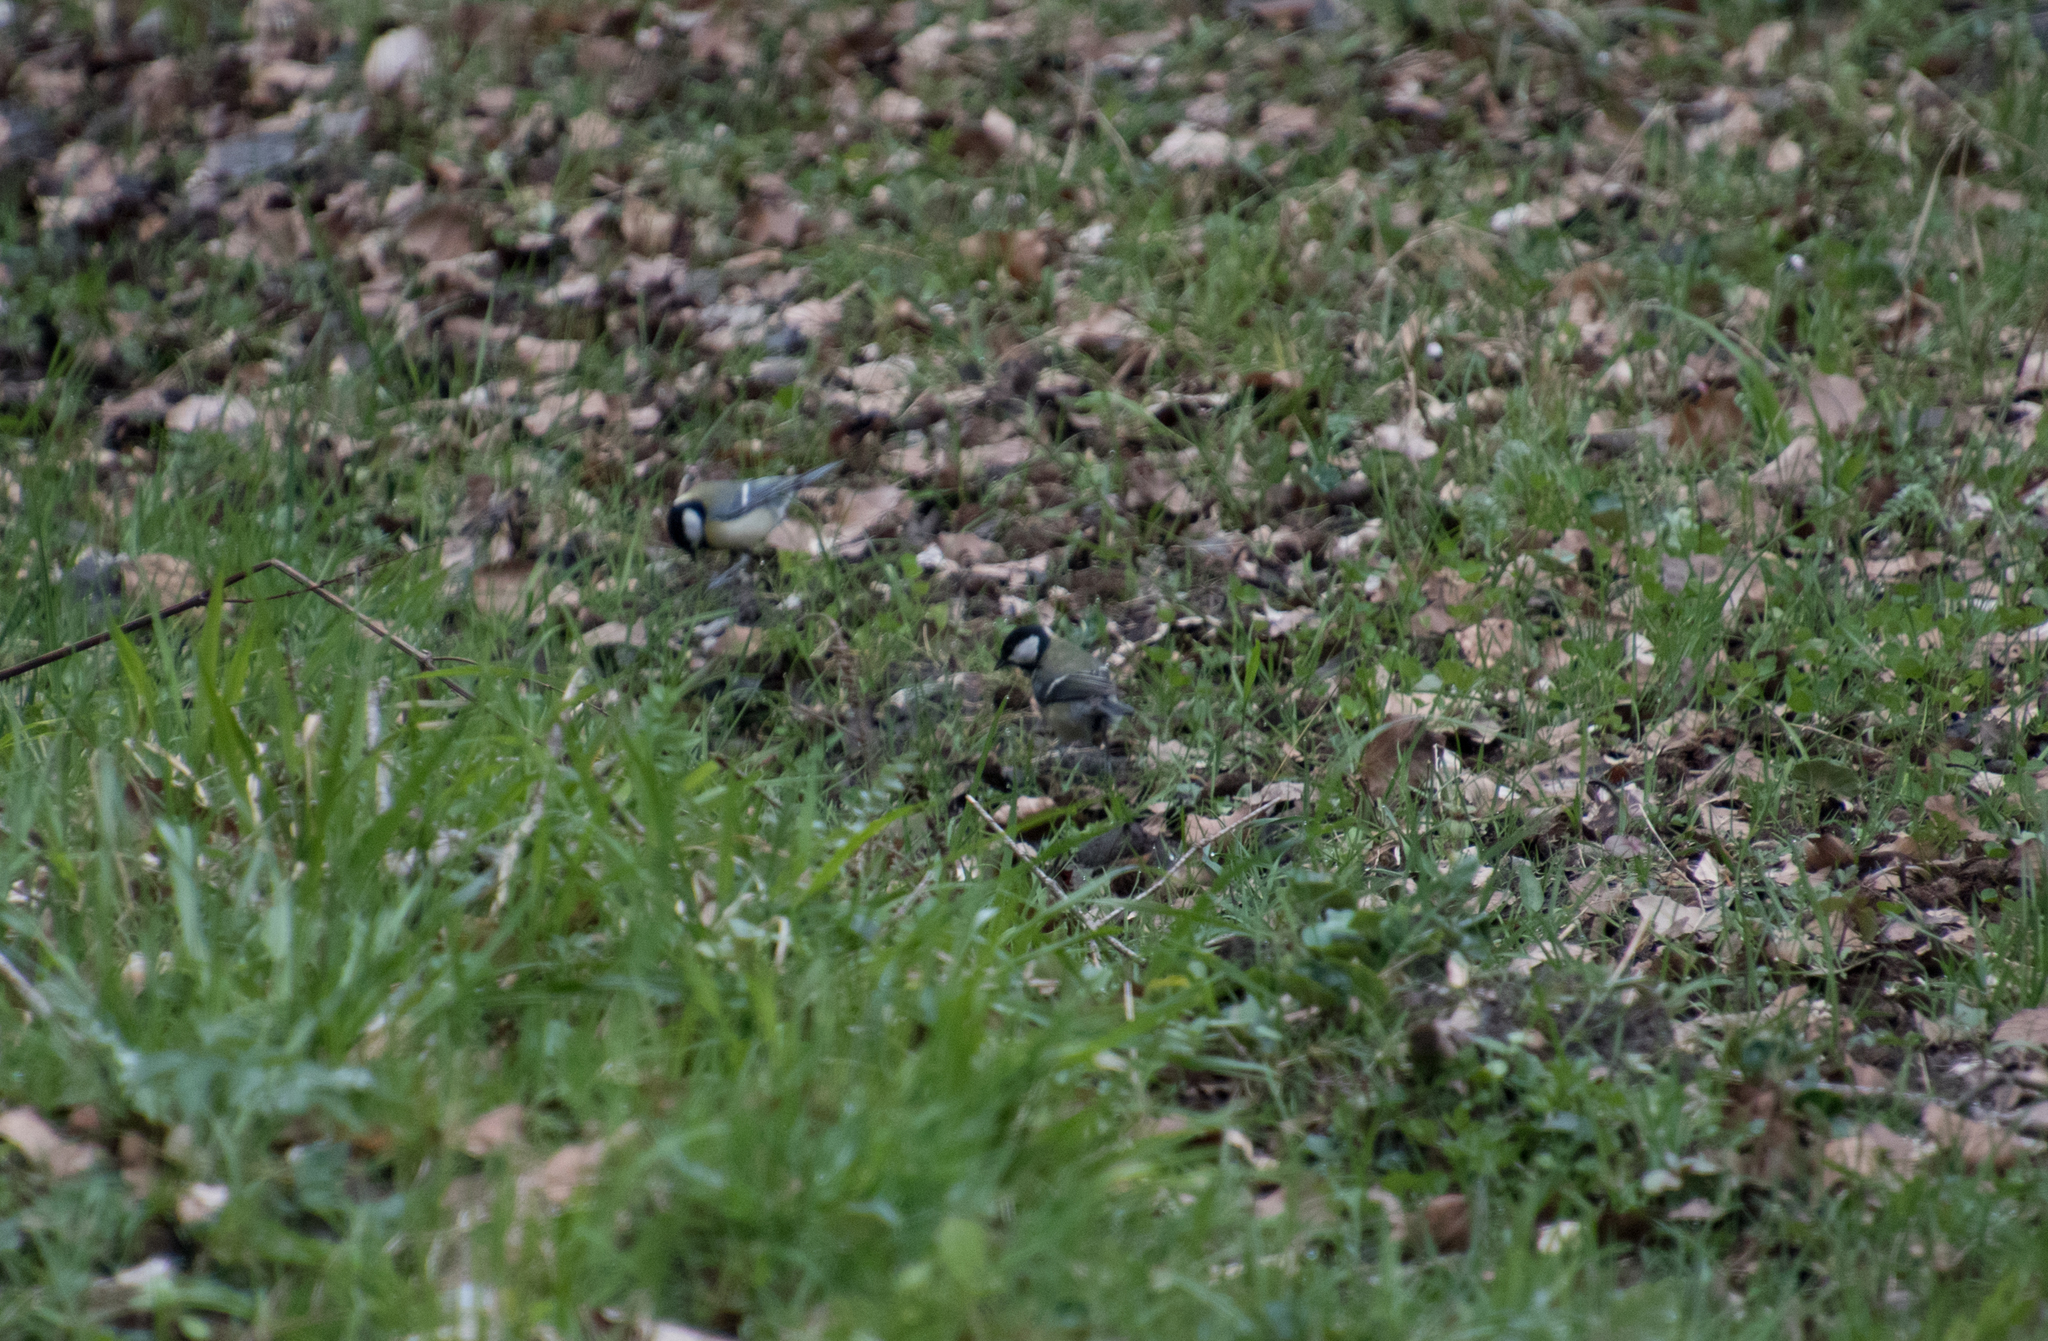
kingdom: Animalia
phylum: Chordata
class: Aves
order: Passeriformes
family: Paridae
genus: Parus
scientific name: Parus major
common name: Great tit
